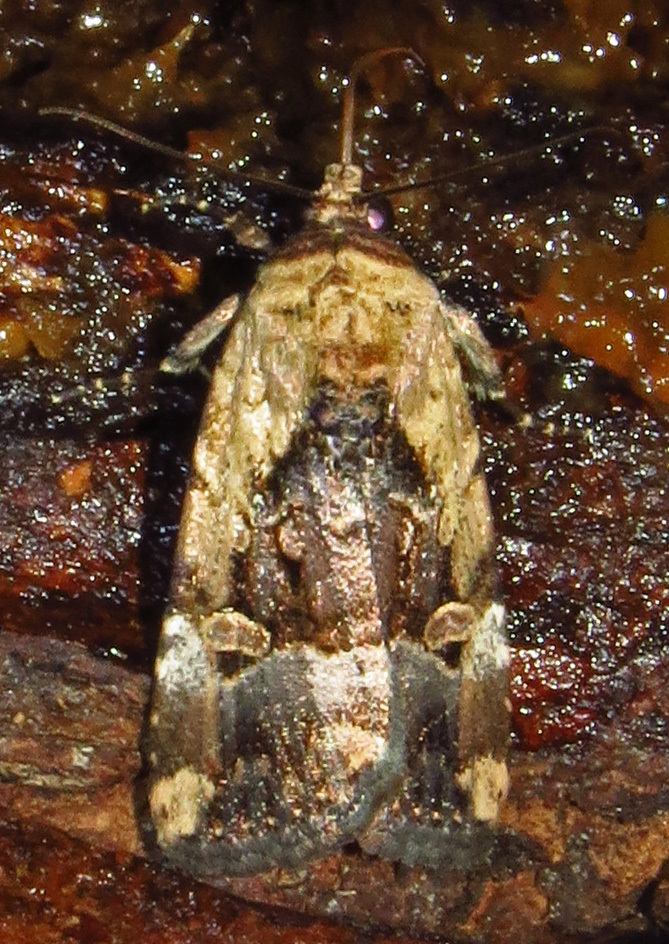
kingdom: Animalia
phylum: Arthropoda
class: Insecta
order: Lepidoptera
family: Noctuidae
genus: Elaphria
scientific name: Elaphria chalcedonia
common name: Chalcedony midget
